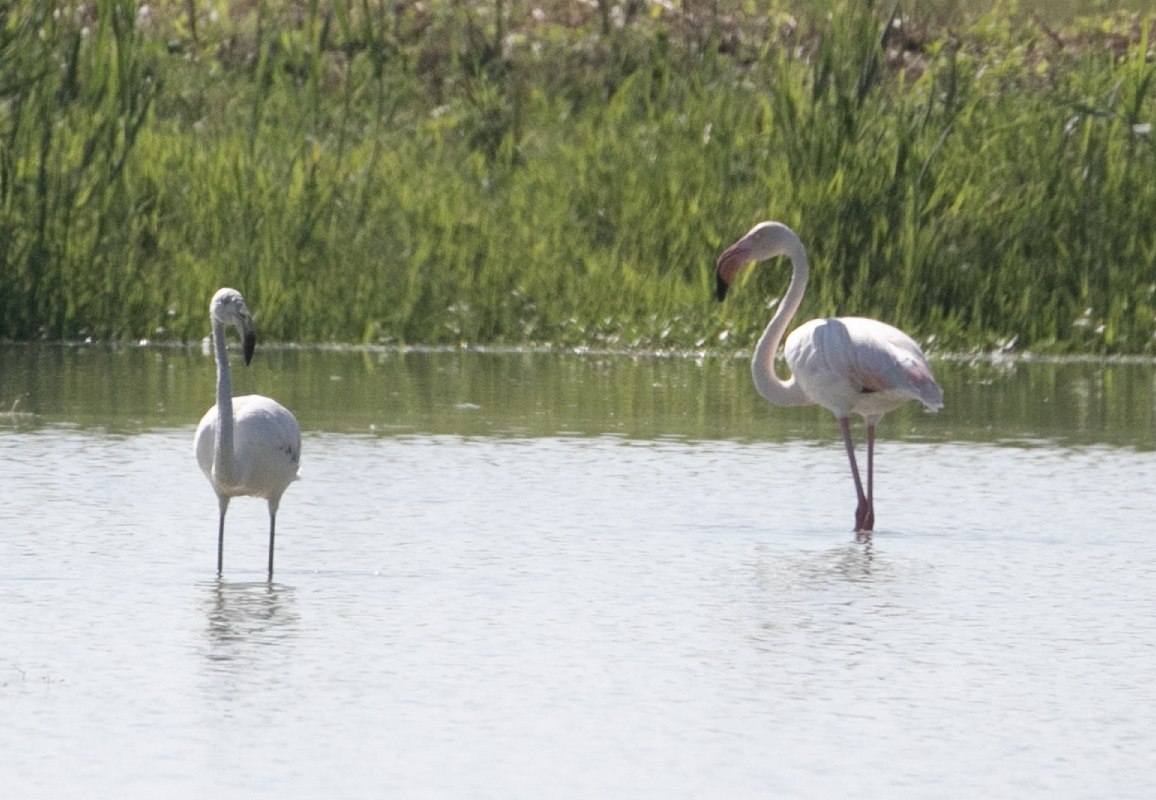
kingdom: Animalia
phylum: Chordata
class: Aves
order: Phoenicopteriformes
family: Phoenicopteridae
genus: Phoenicopterus
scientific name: Phoenicopterus roseus
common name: Greater flamingo
